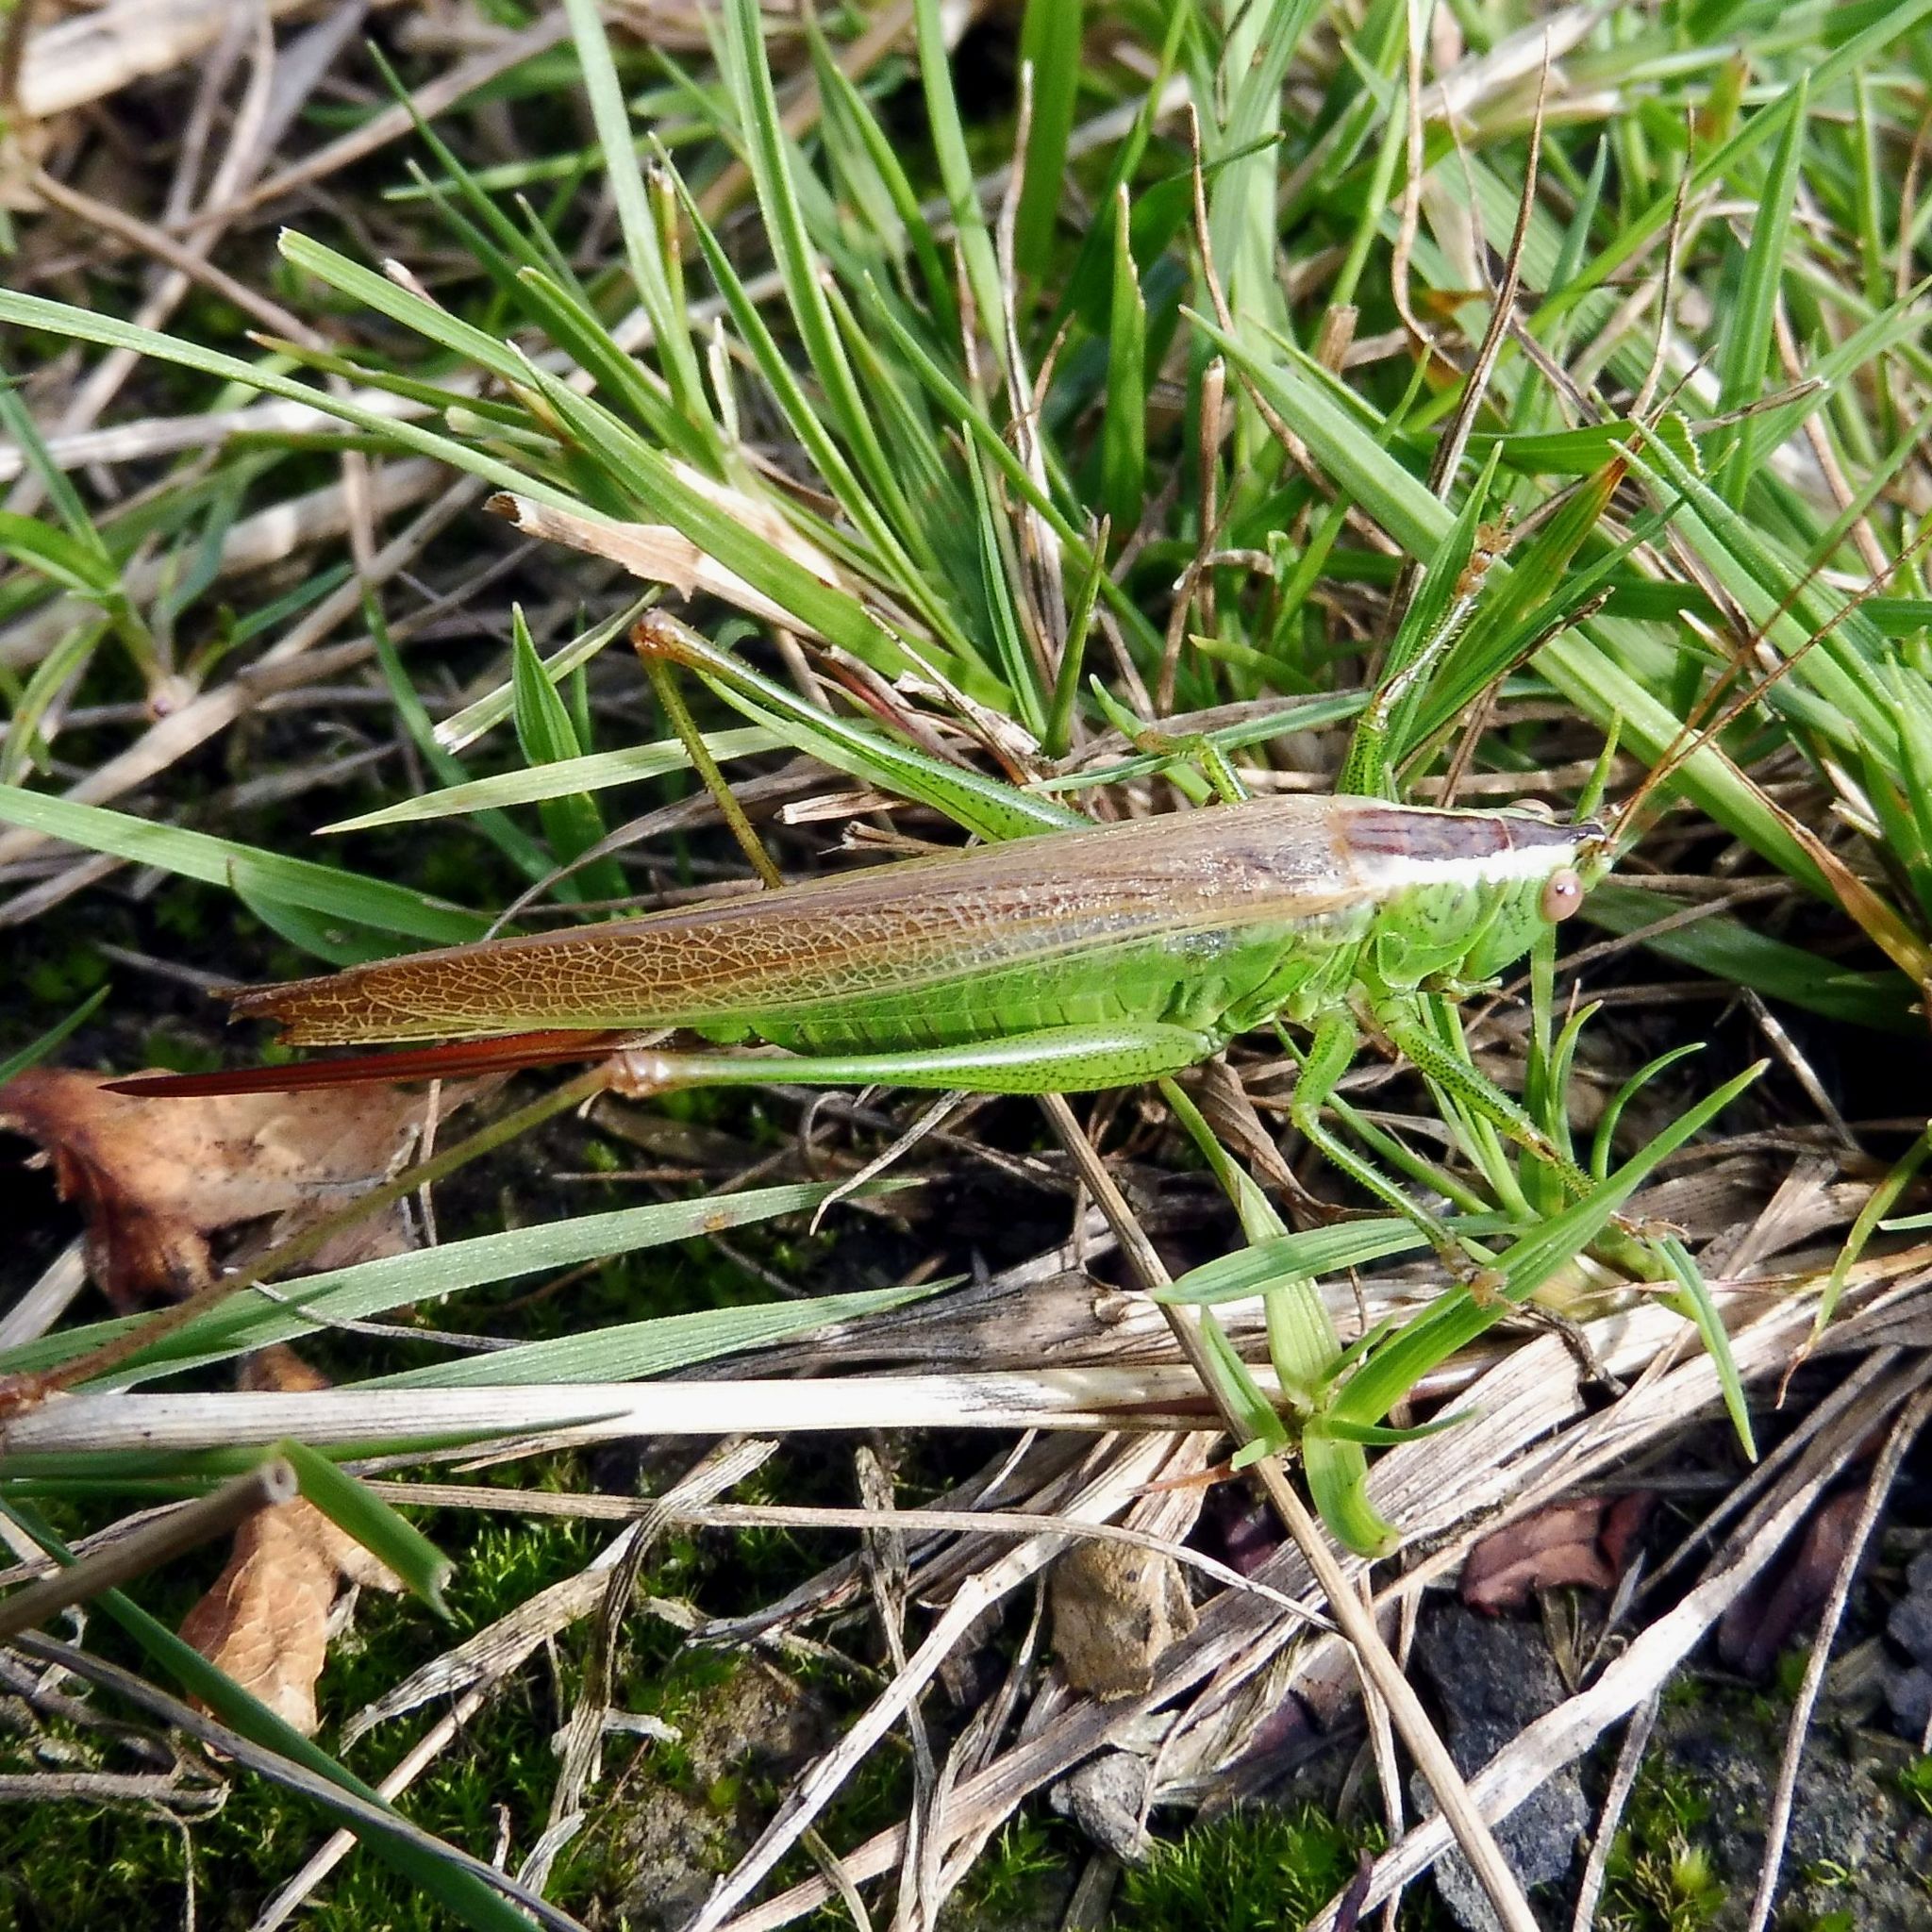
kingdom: Animalia
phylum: Arthropoda
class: Insecta
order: Orthoptera
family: Tettigoniidae
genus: Conocephalus
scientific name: Conocephalus fuscus
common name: Long-winged conehead
